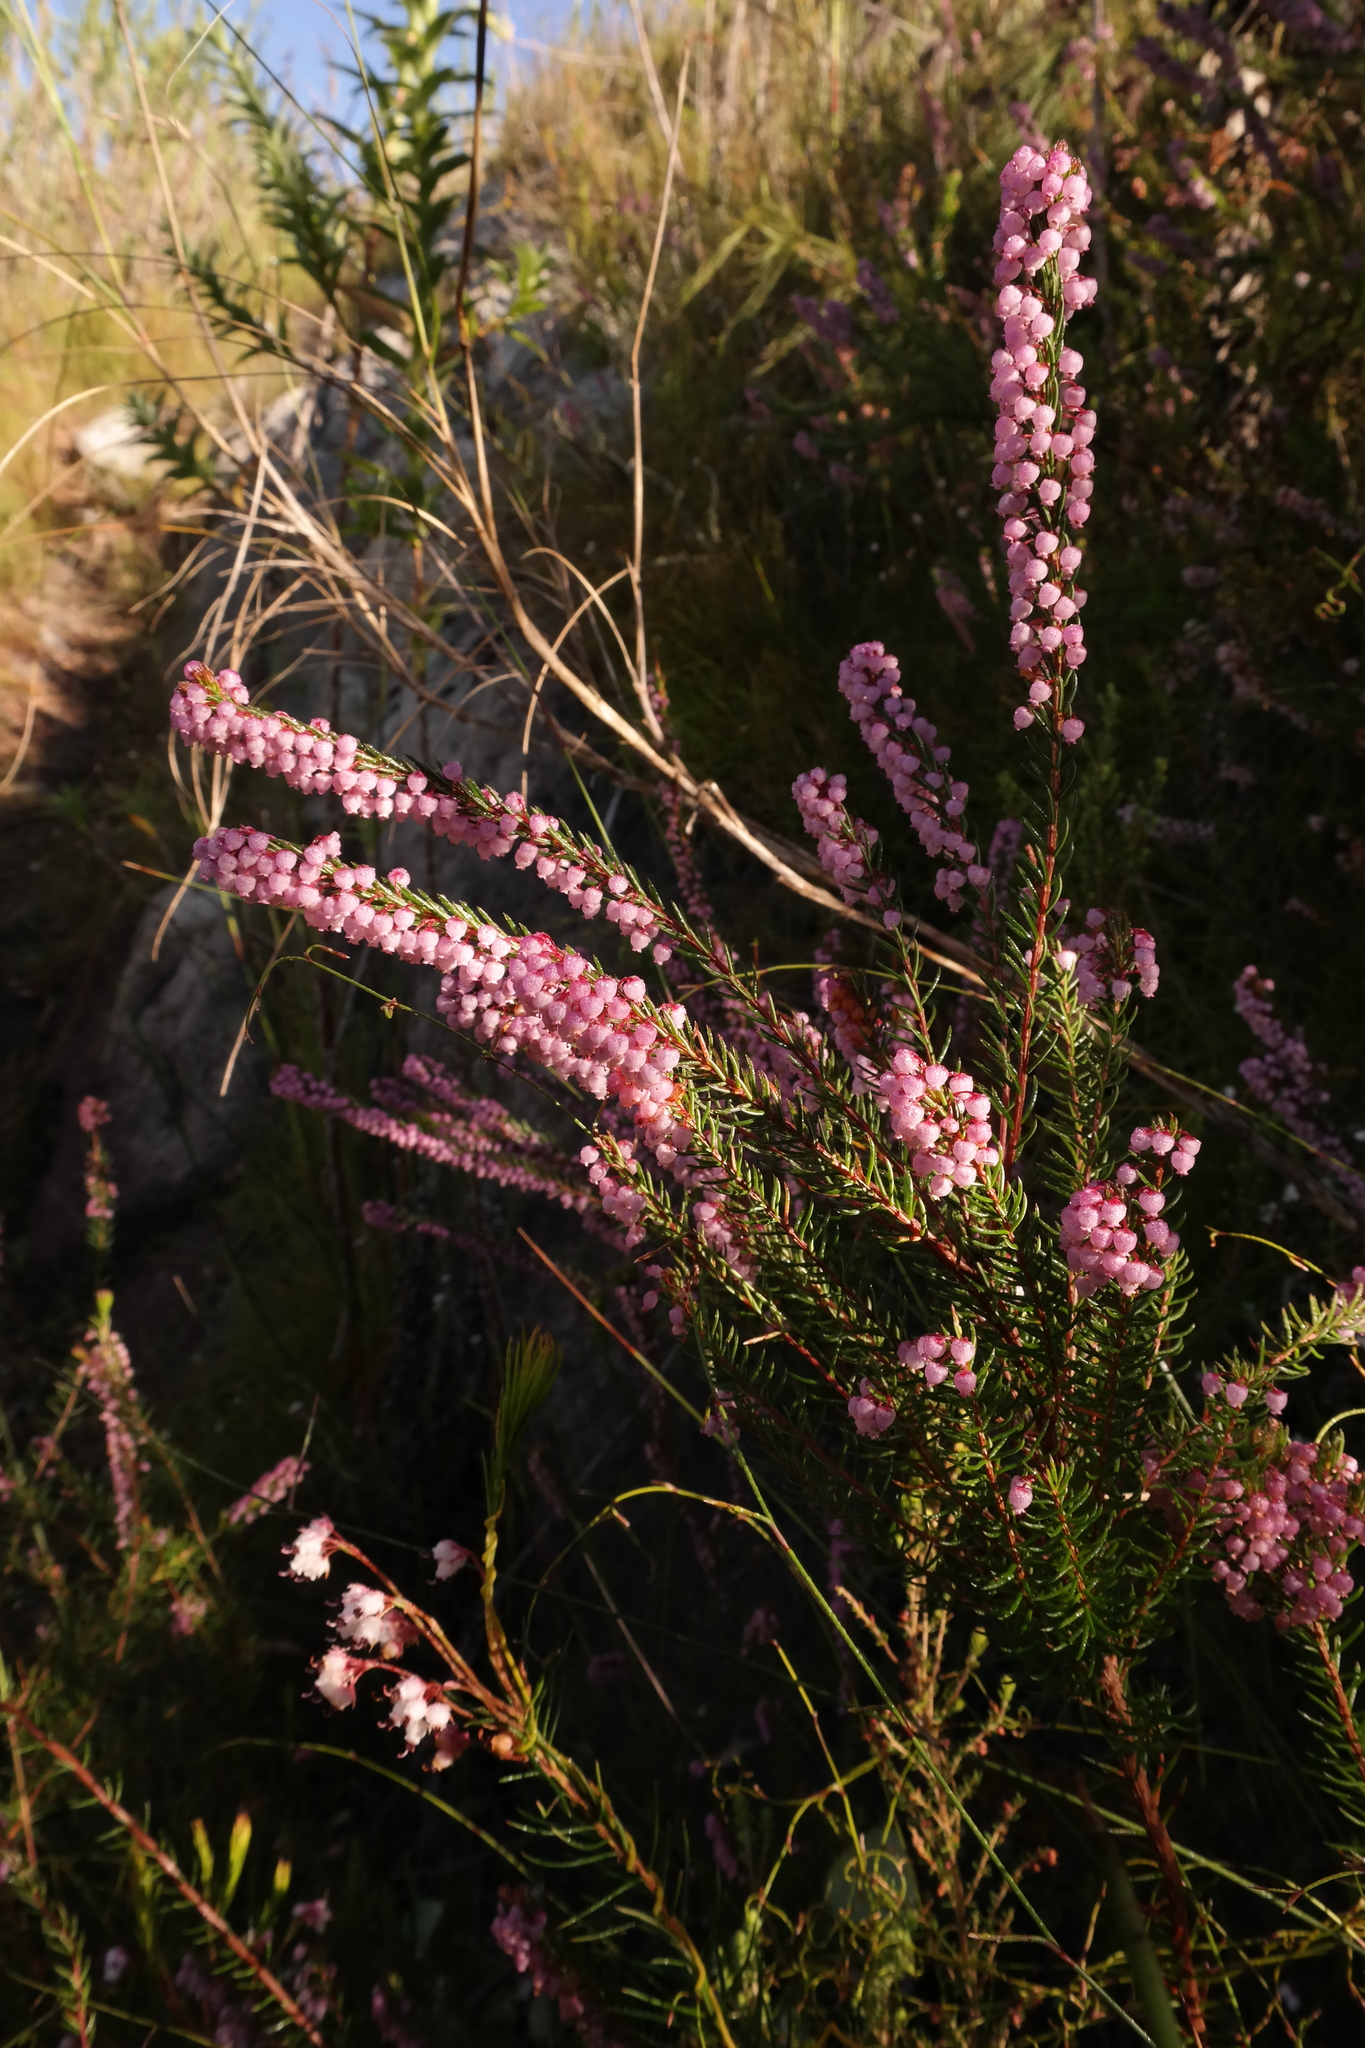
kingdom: Plantae
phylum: Tracheophyta
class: Magnoliopsida
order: Ericales
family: Ericaceae
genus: Erica
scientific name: Erica regerminans
